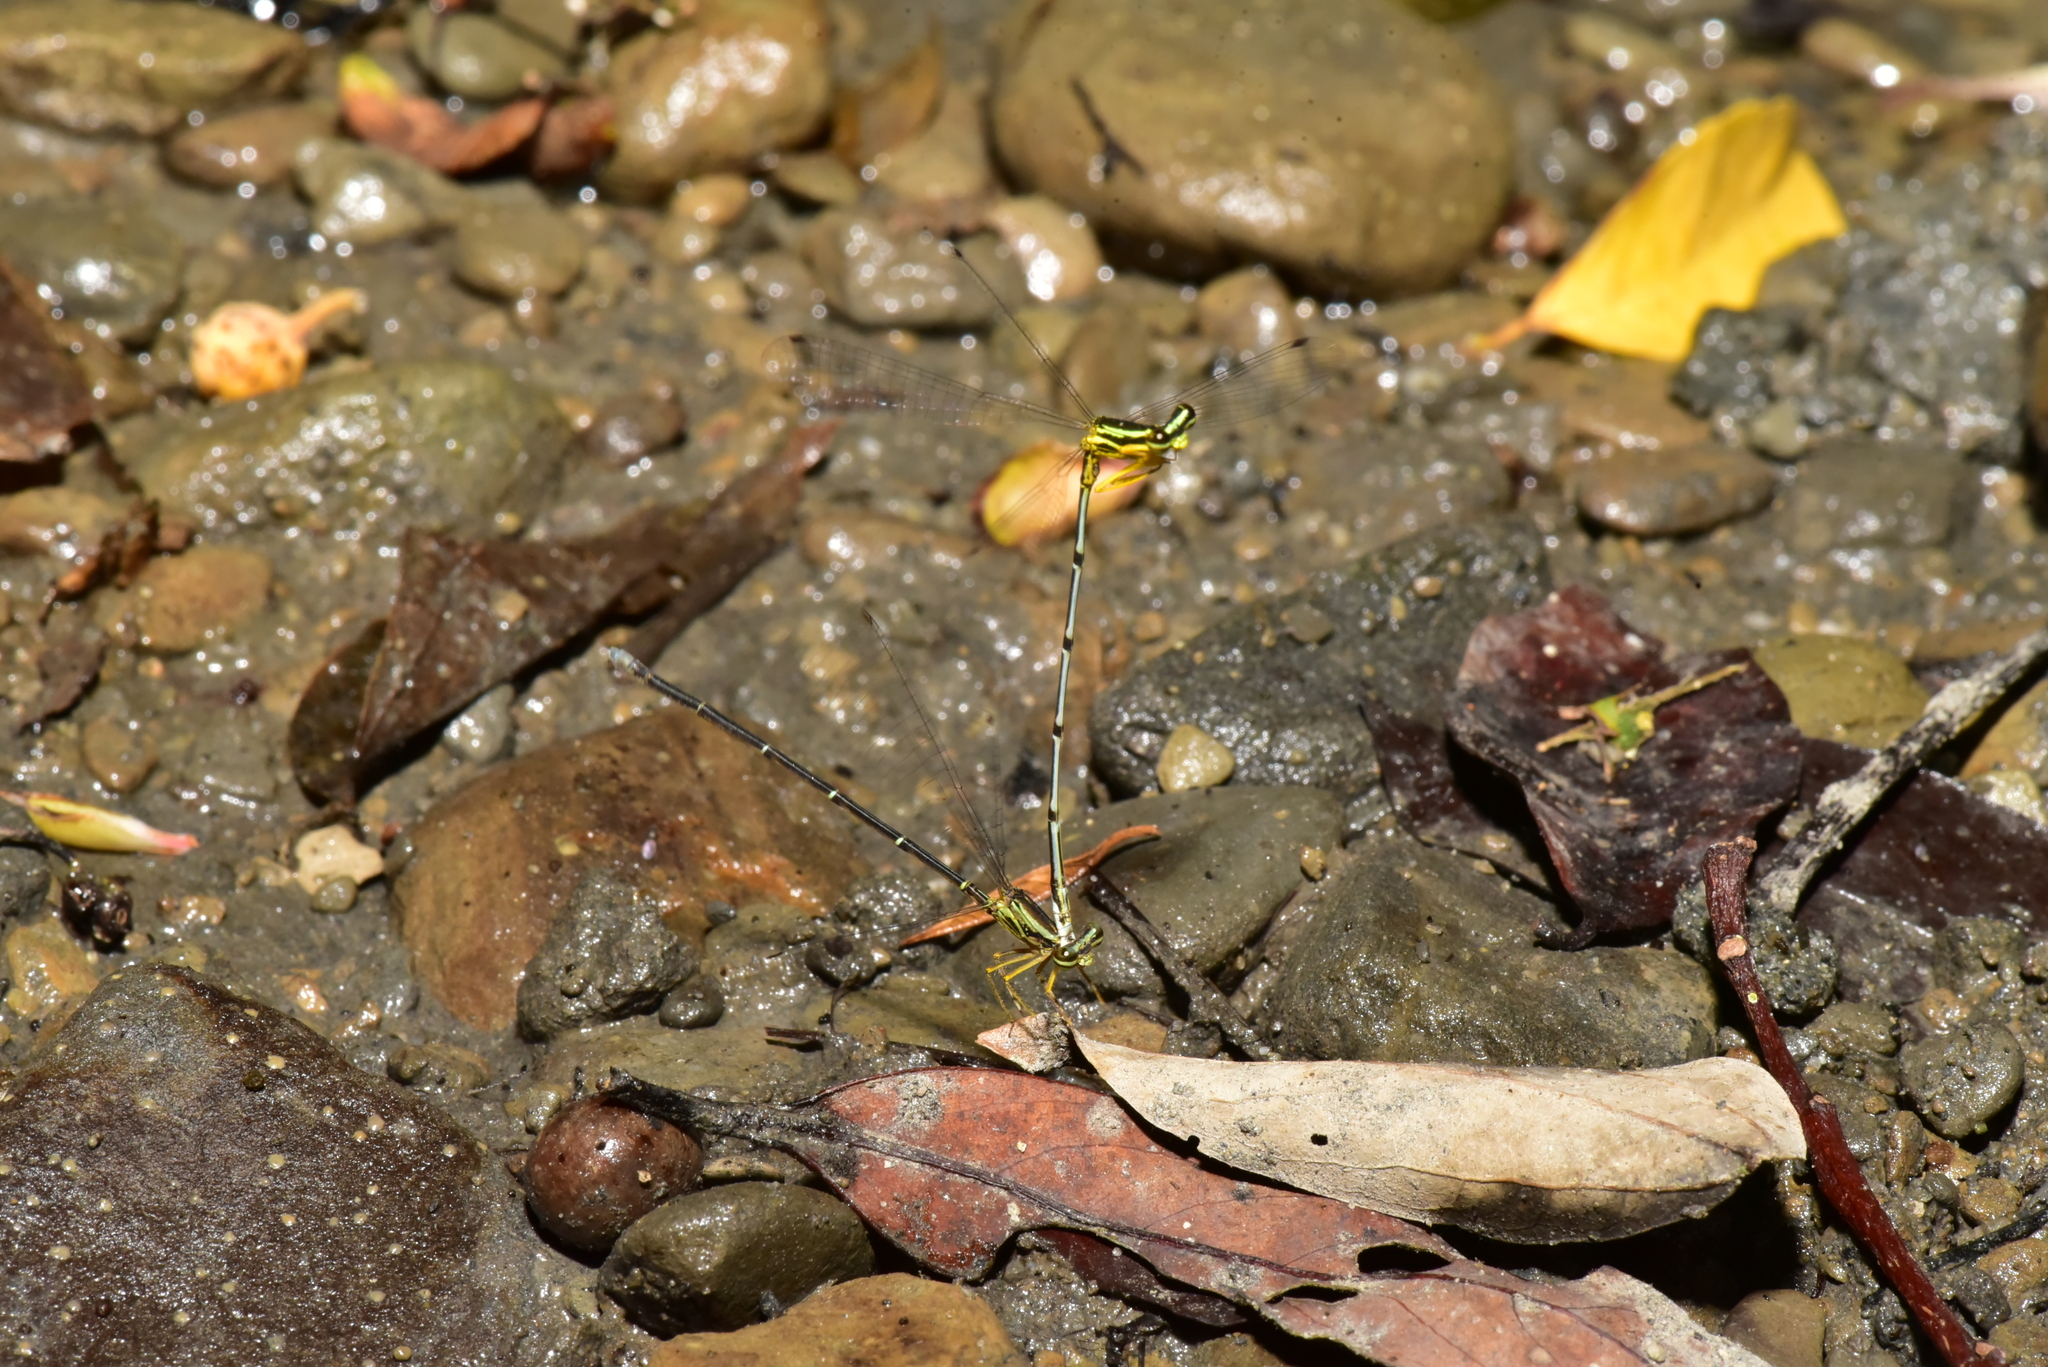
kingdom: Animalia
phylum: Arthropoda
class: Insecta
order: Odonata
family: Platycnemididae
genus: Copera
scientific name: Copera marginipes
